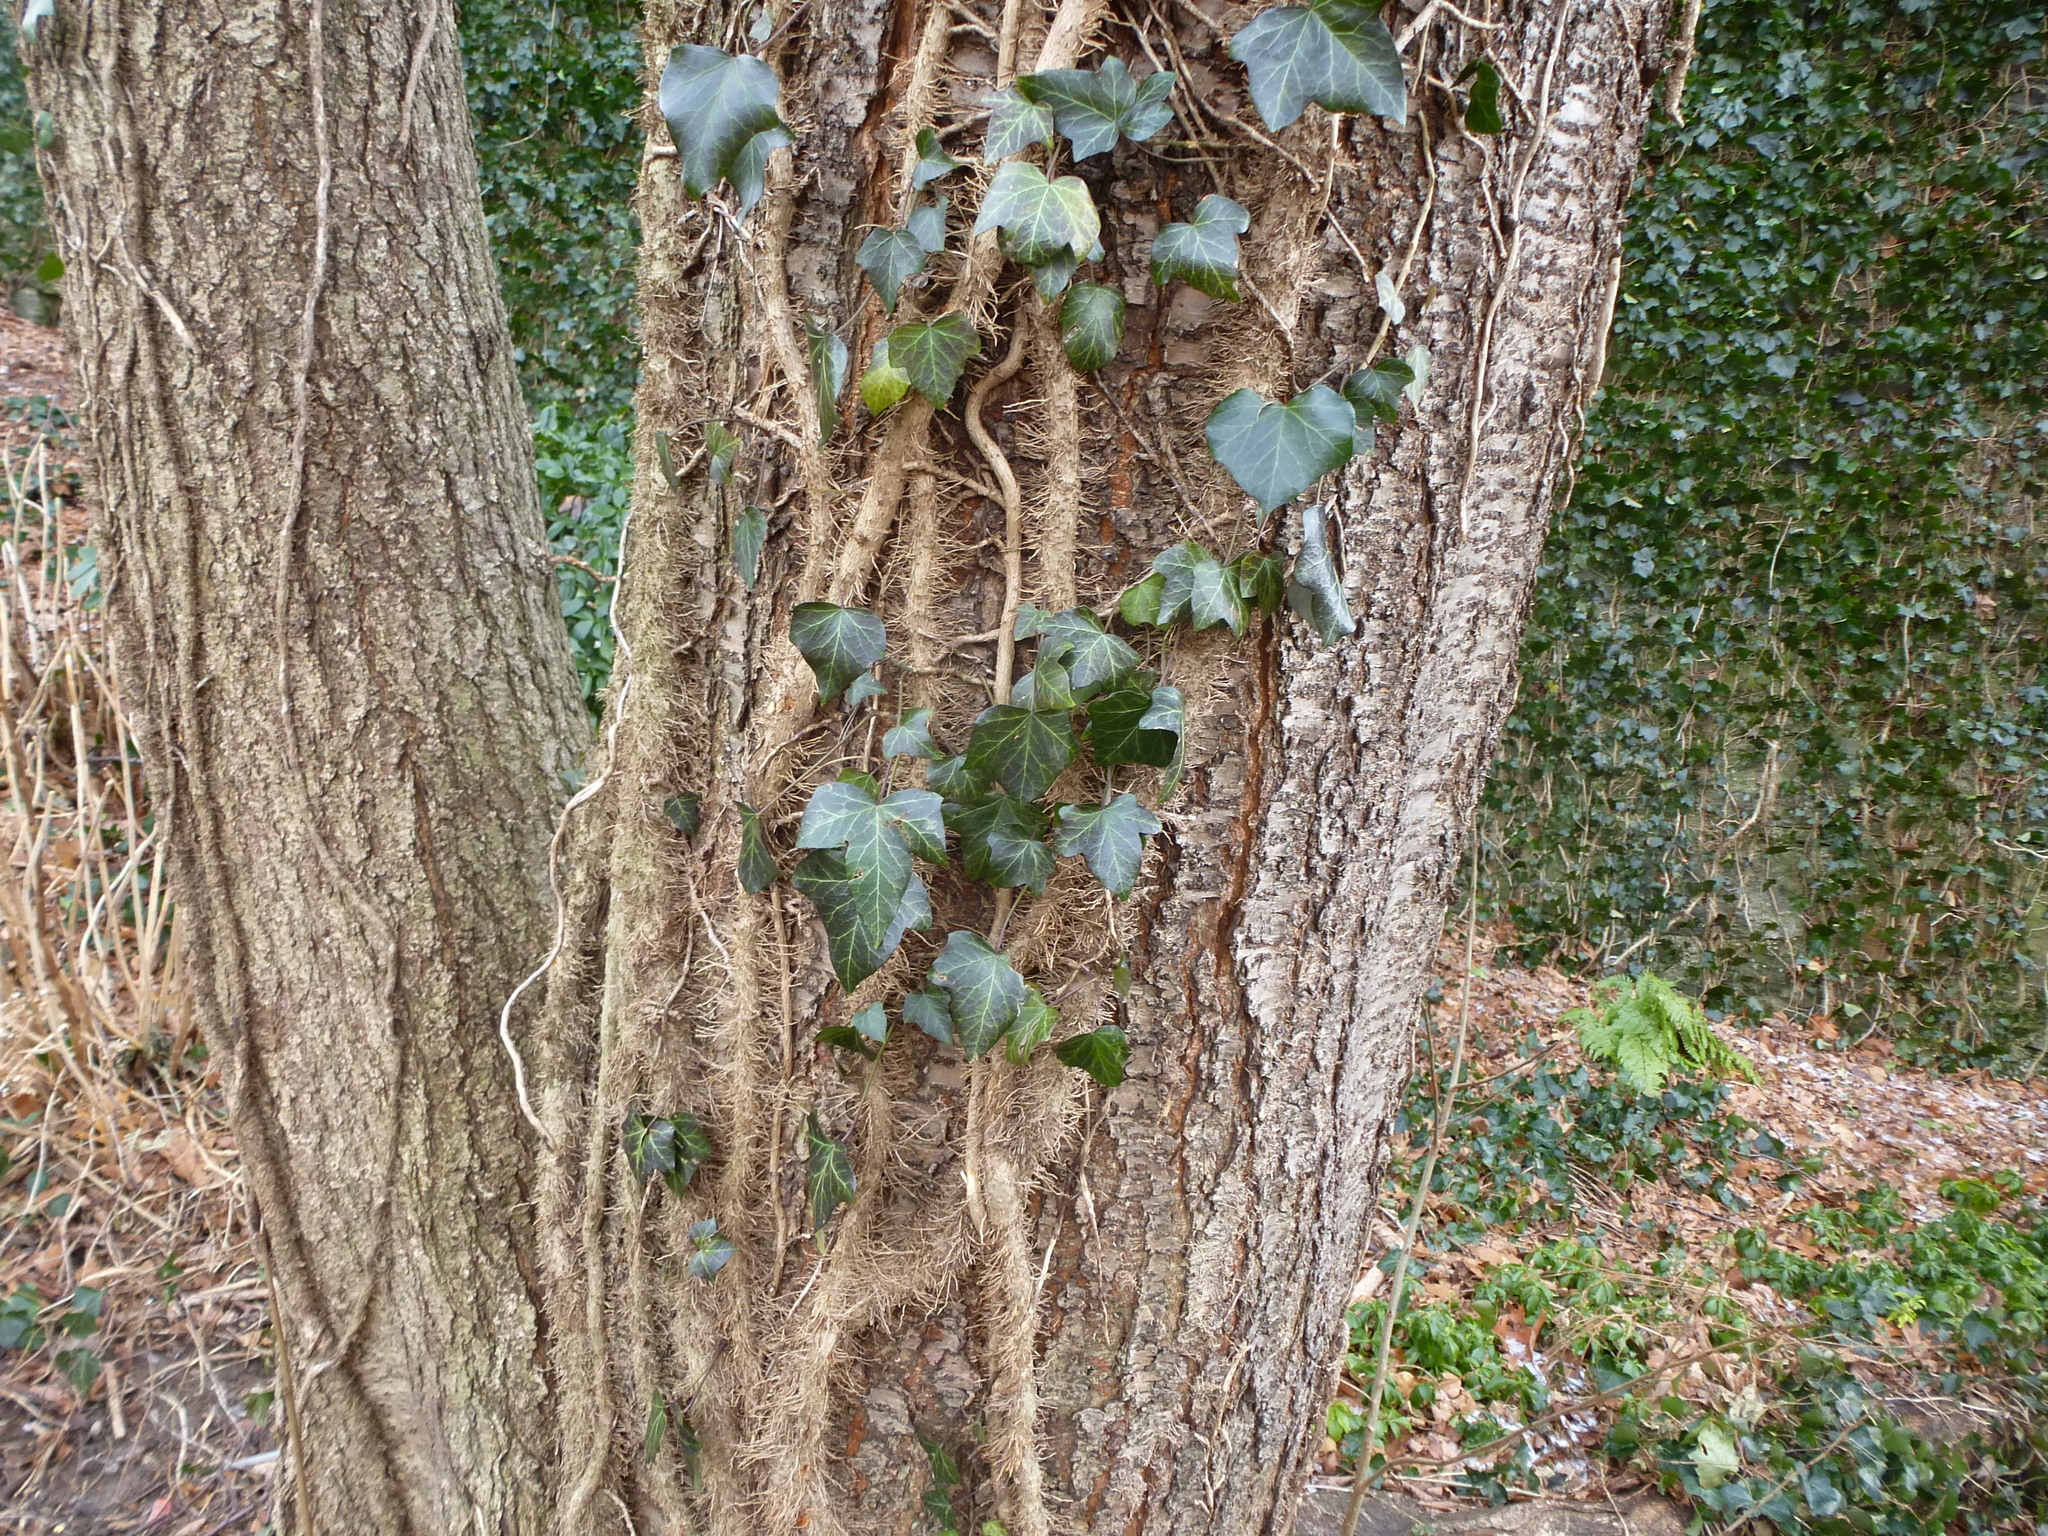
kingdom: Plantae
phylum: Tracheophyta
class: Magnoliopsida
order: Apiales
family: Araliaceae
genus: Hedera
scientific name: Hedera helix
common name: Ivy
